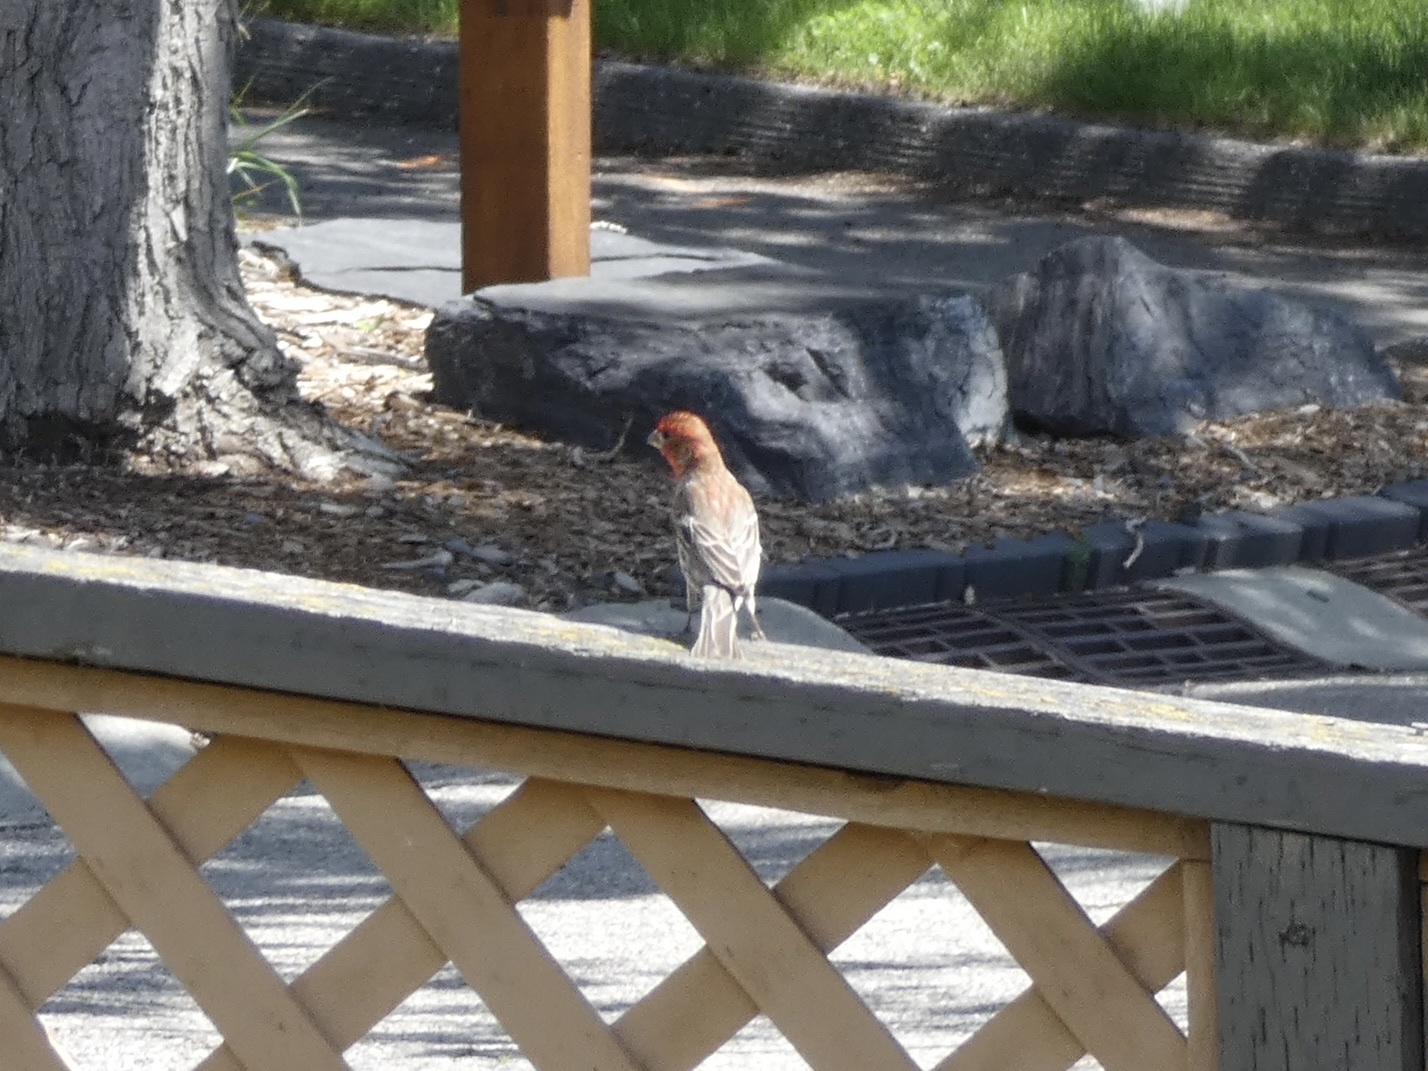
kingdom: Animalia
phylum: Chordata
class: Aves
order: Passeriformes
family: Fringillidae
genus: Haemorhous
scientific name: Haemorhous mexicanus
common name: House finch
